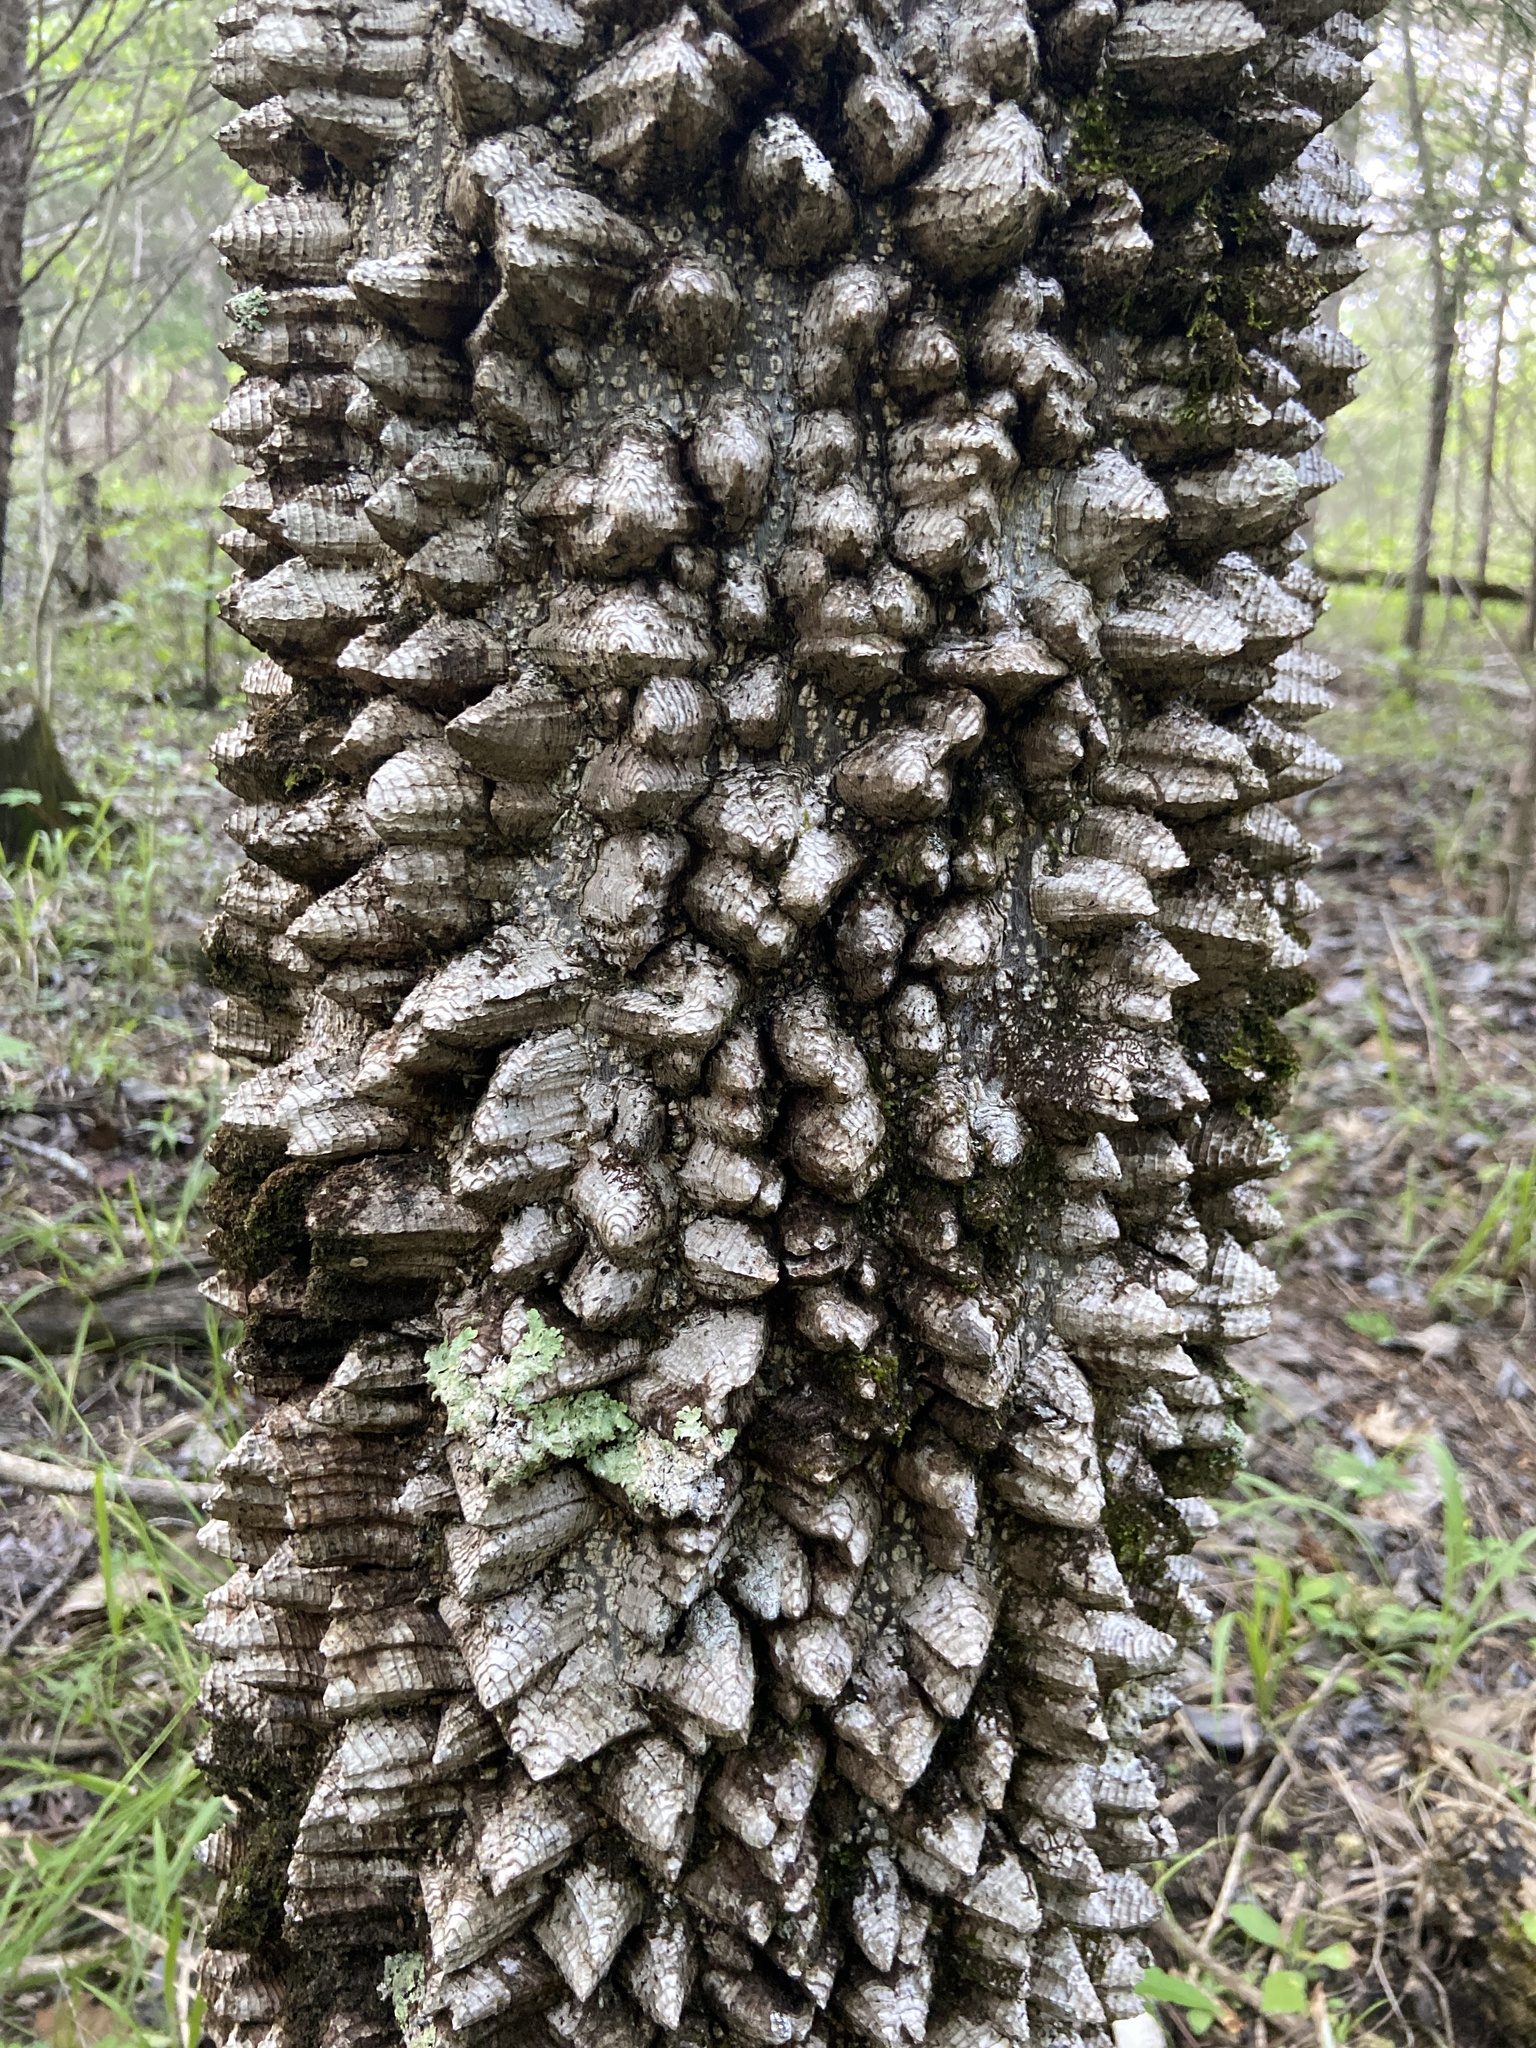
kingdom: Plantae
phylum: Tracheophyta
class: Magnoliopsida
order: Sapindales
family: Rutaceae
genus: Zanthoxylum
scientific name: Zanthoxylum clava-herculis
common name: Hercules'-club
